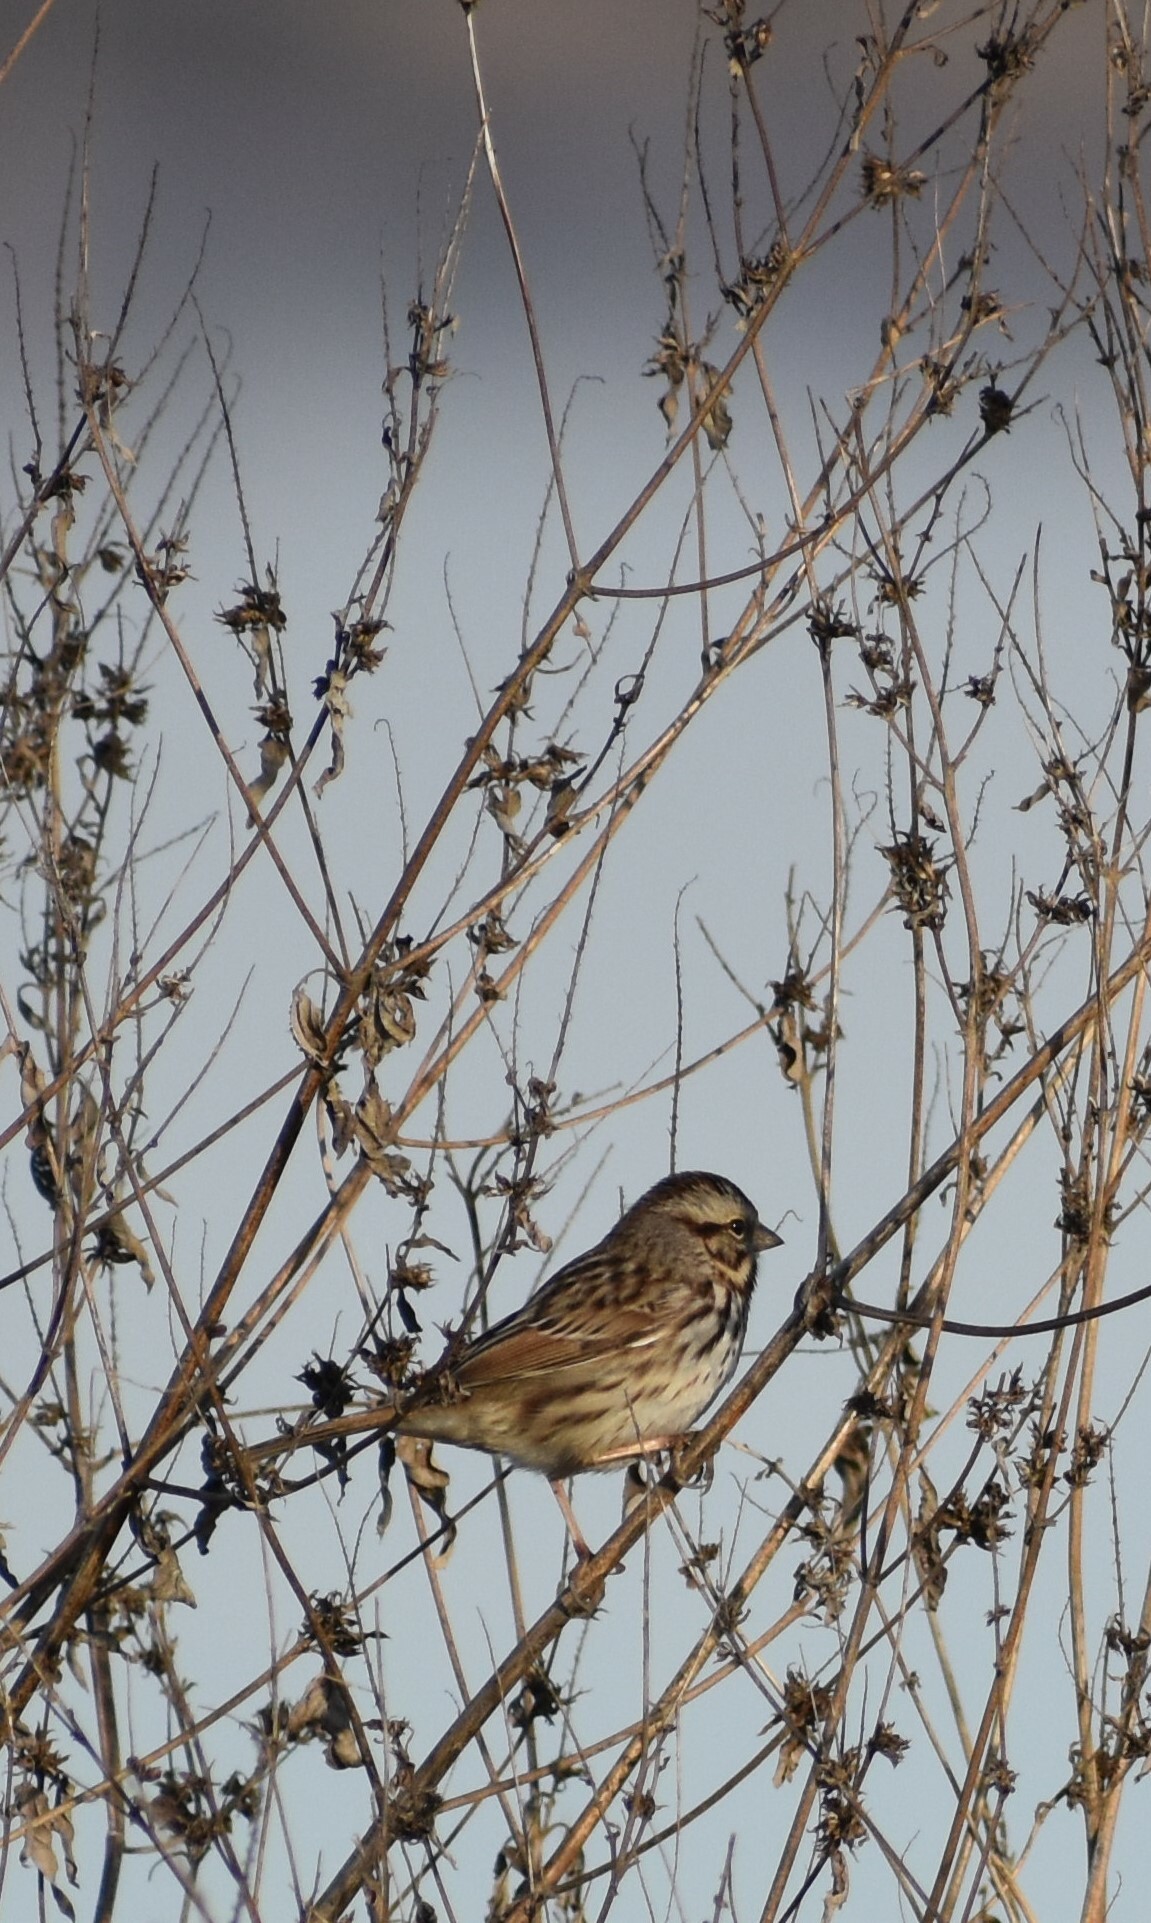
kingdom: Animalia
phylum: Chordata
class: Aves
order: Passeriformes
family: Passerellidae
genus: Passerculus
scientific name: Passerculus sandwichensis
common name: Savannah sparrow
